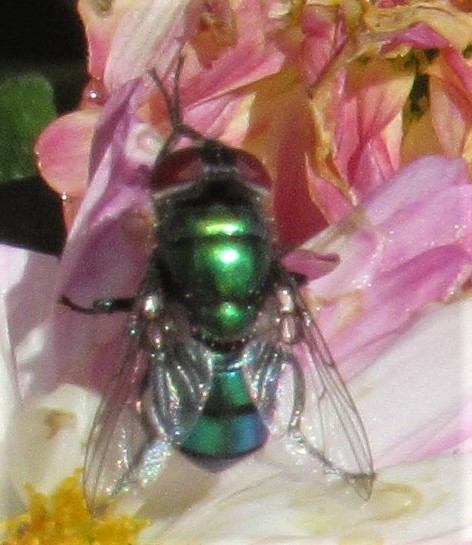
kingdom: Animalia
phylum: Arthropoda
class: Insecta
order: Diptera
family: Calliphoridae
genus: Chrysomya
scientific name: Chrysomya rufifacies
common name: Blow fly
